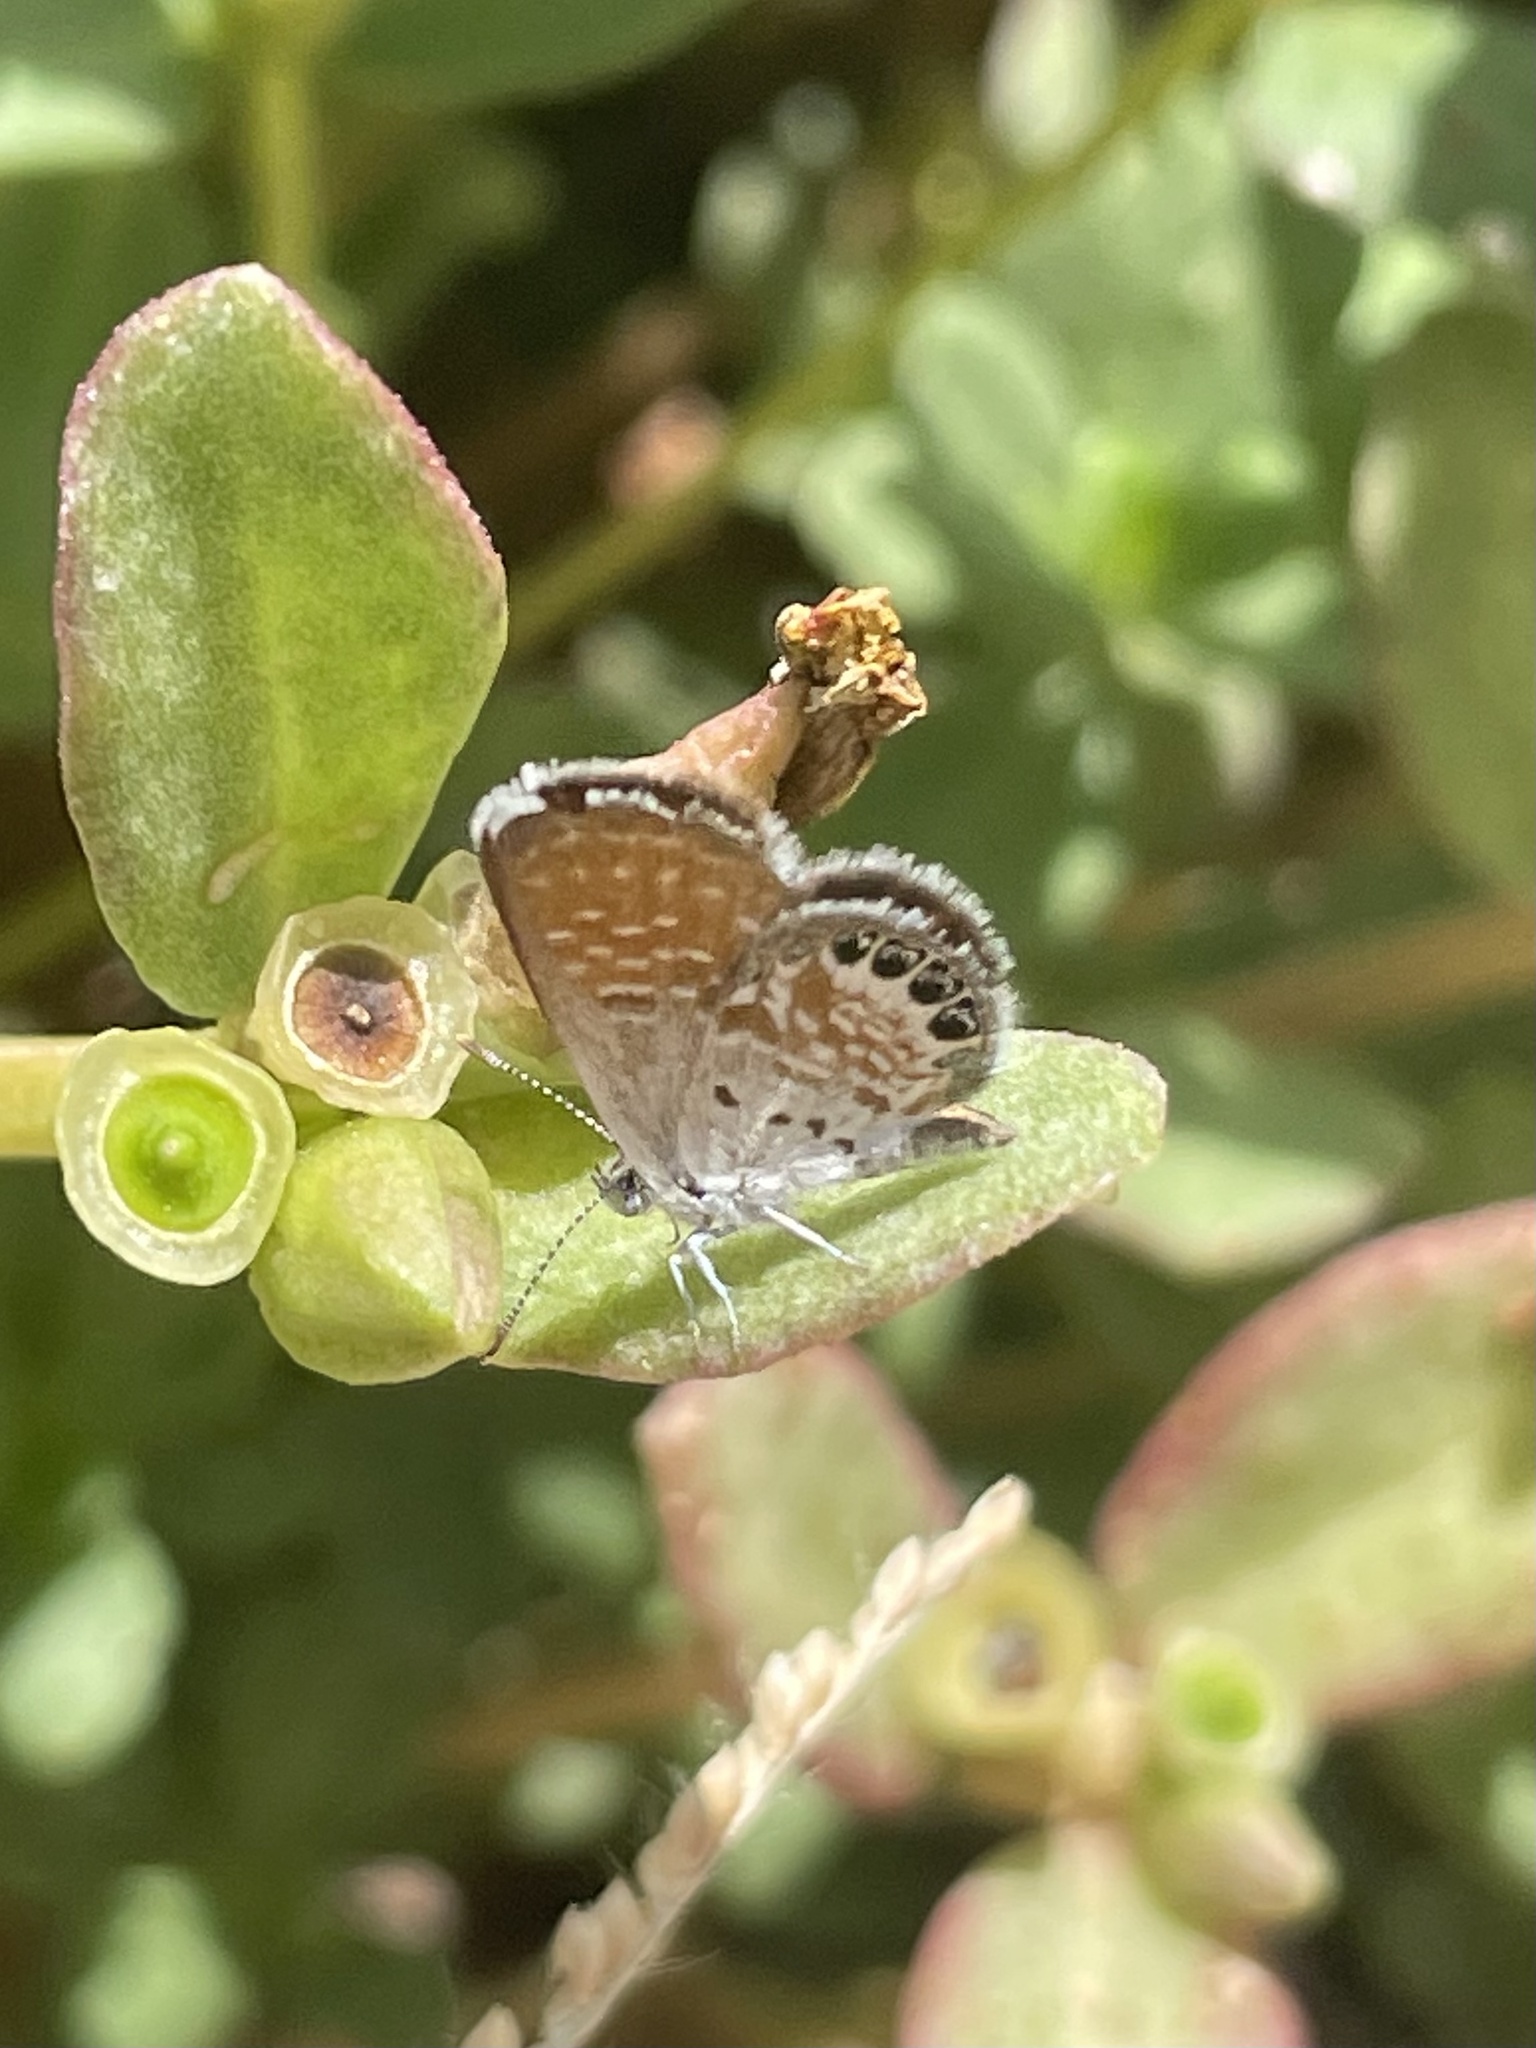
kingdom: Animalia
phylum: Arthropoda
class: Insecta
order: Lepidoptera
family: Lycaenidae
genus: Brephidium
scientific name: Brephidium exilis
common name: Pygmy blue
